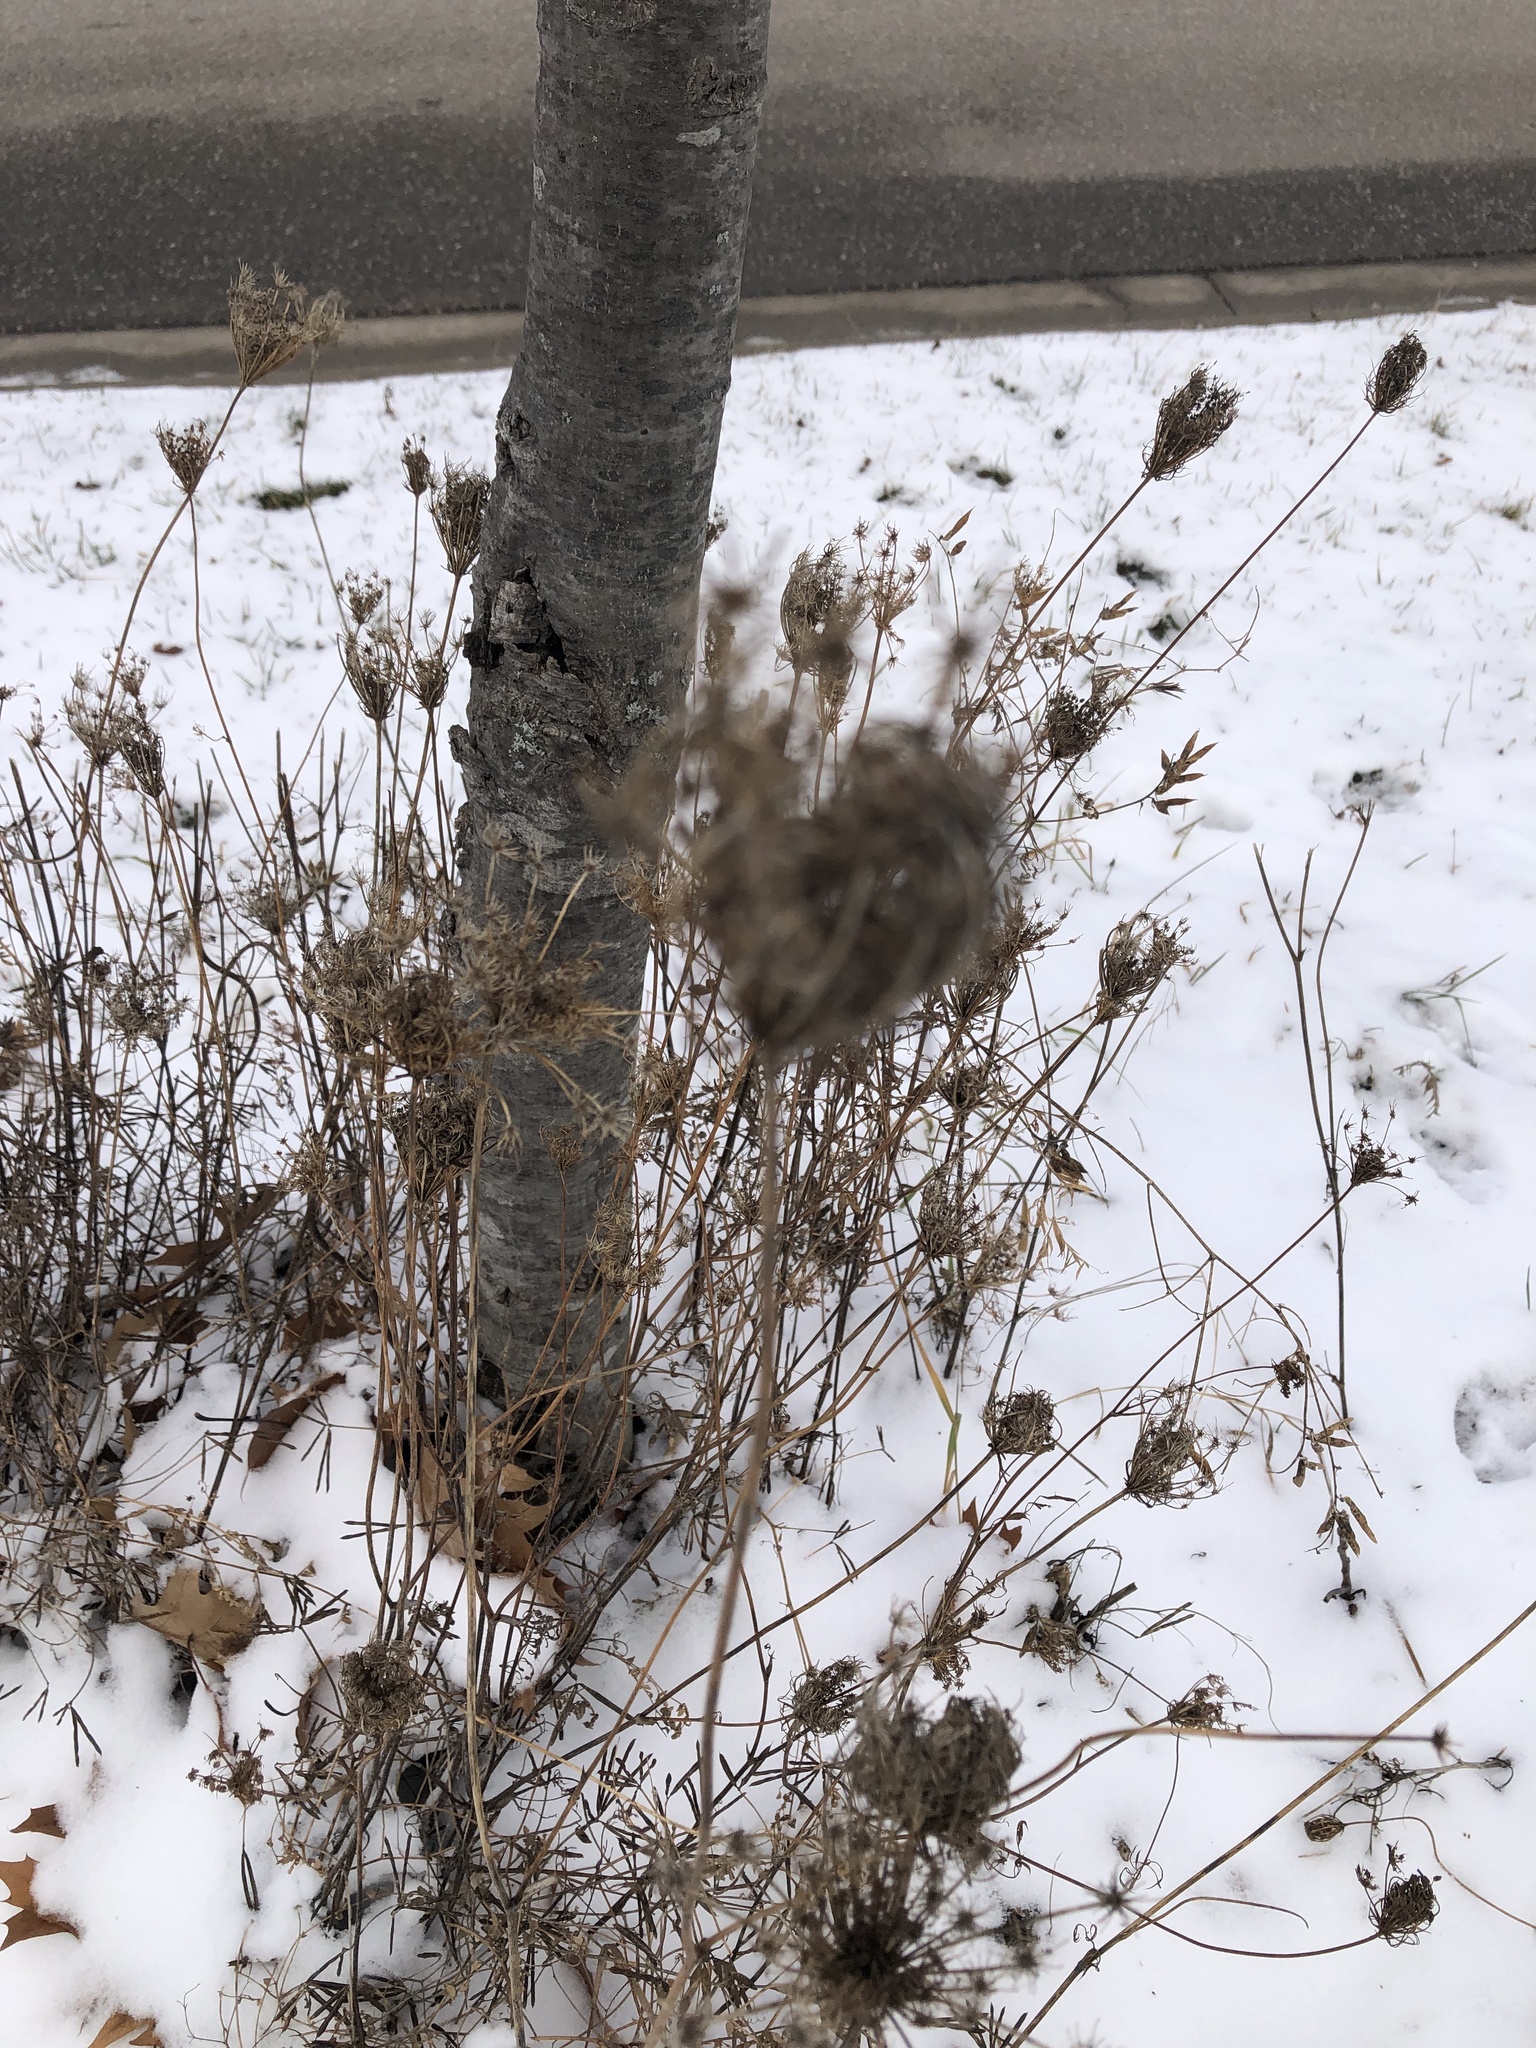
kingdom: Plantae
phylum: Tracheophyta
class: Magnoliopsida
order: Apiales
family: Apiaceae
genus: Daucus
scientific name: Daucus carota
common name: Wild carrot
